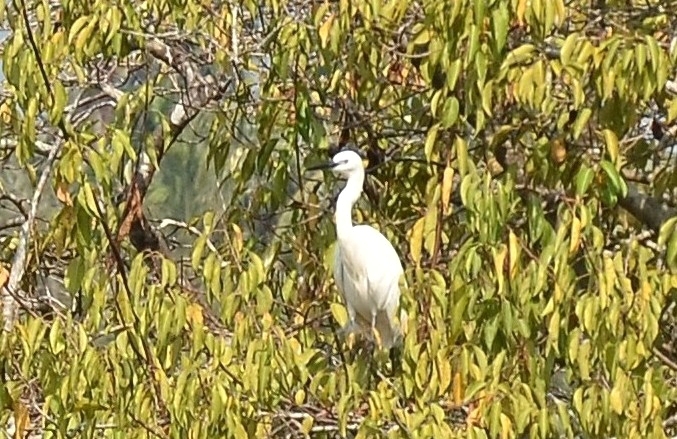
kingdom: Animalia
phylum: Chordata
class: Aves
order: Pelecaniformes
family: Ardeidae
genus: Egretta
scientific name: Egretta garzetta
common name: Little egret
